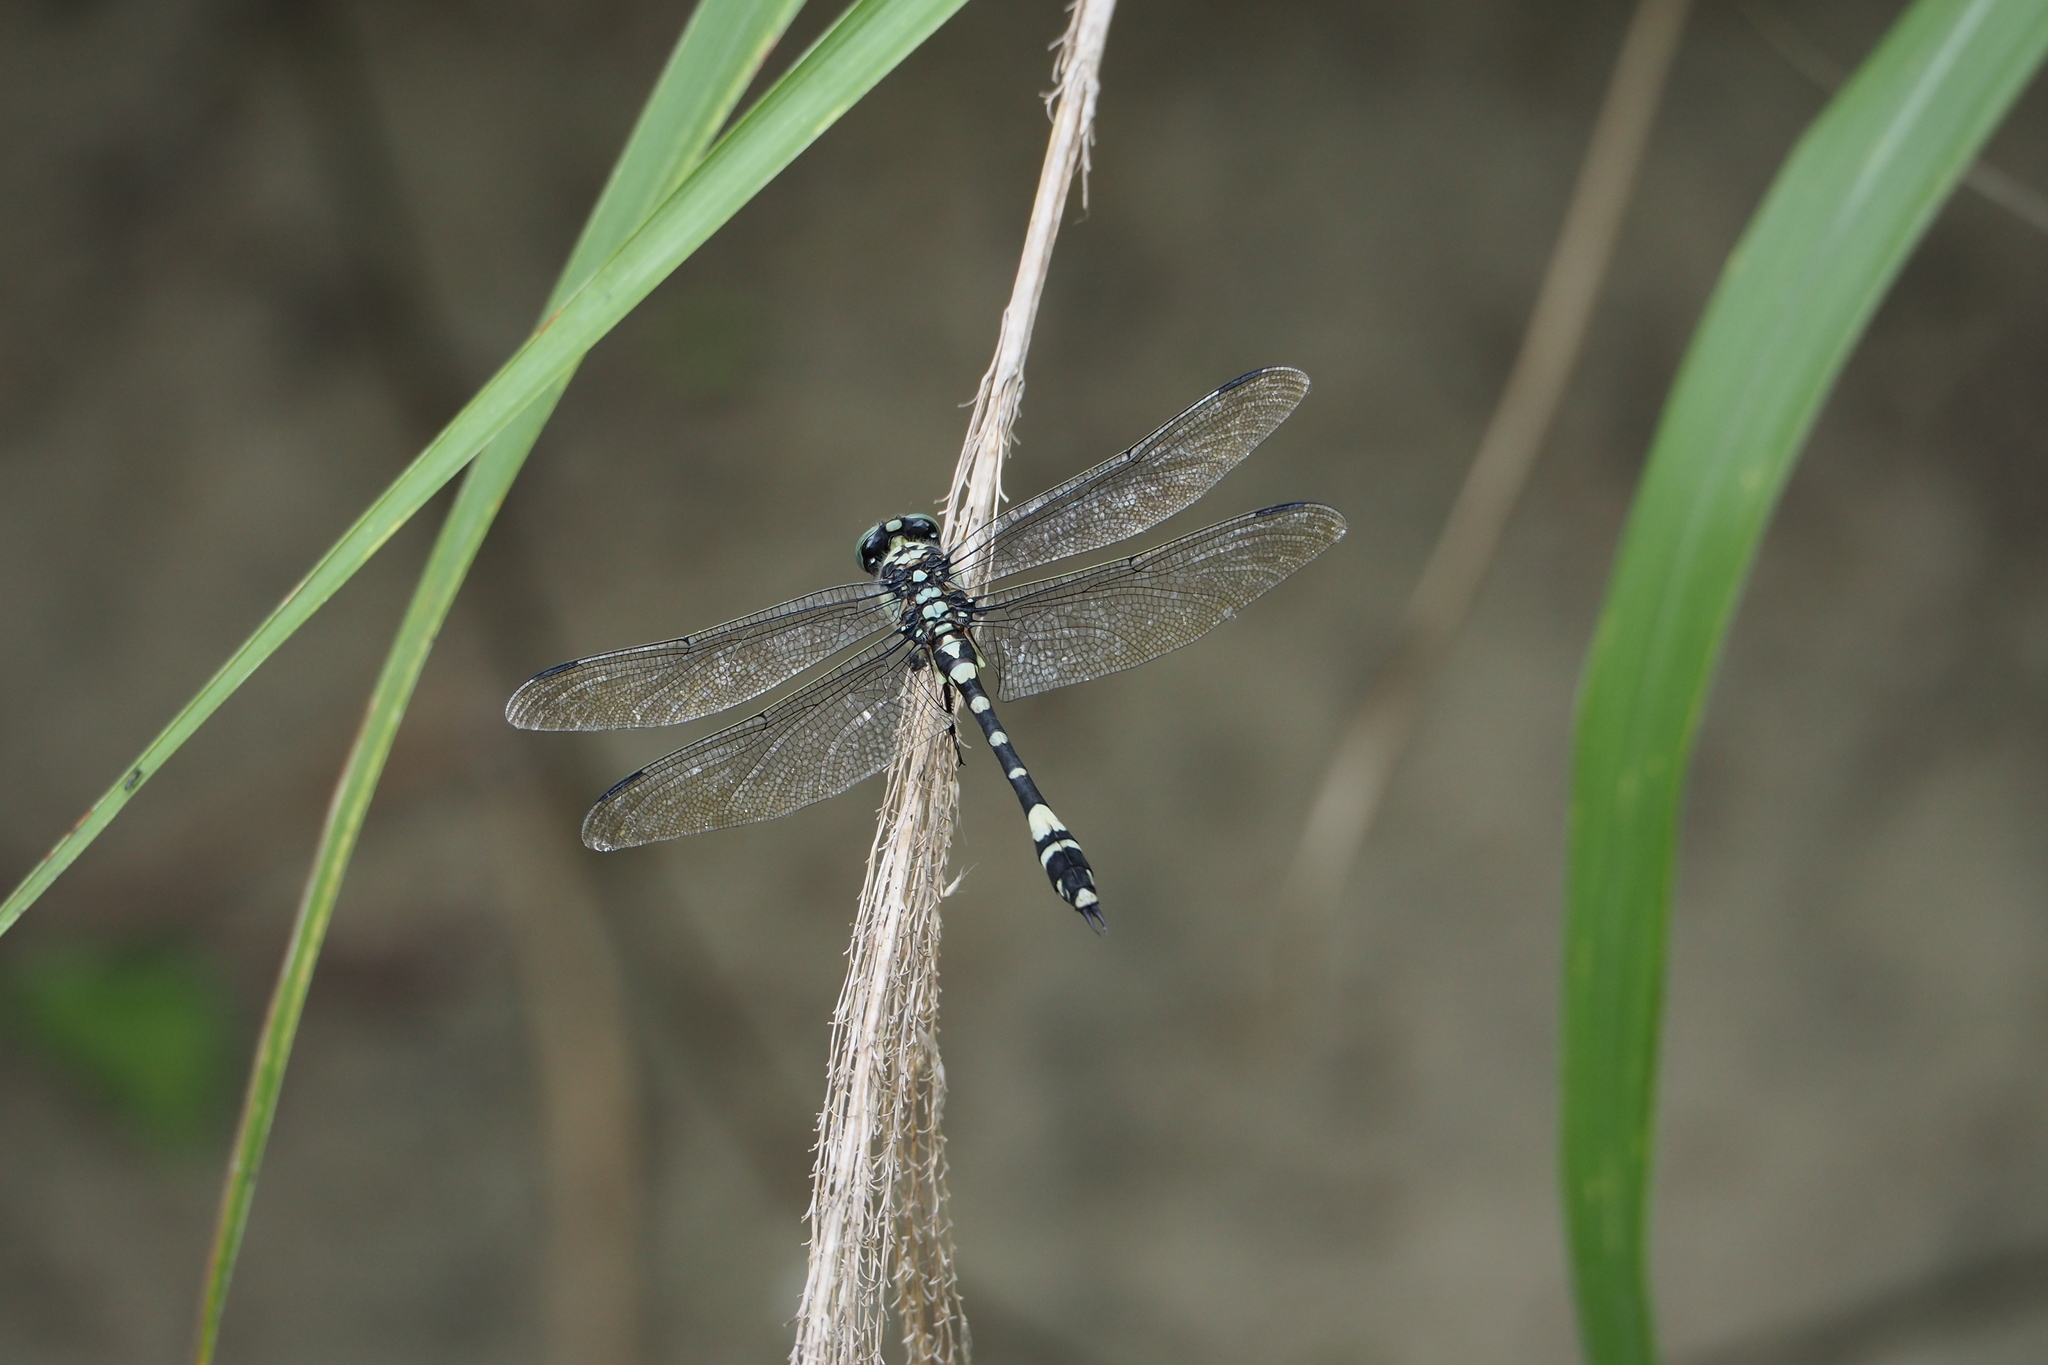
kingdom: Animalia
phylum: Arthropoda
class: Insecta
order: Odonata
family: Gomphidae
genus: Gomphidia
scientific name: Gomphidia confluens
